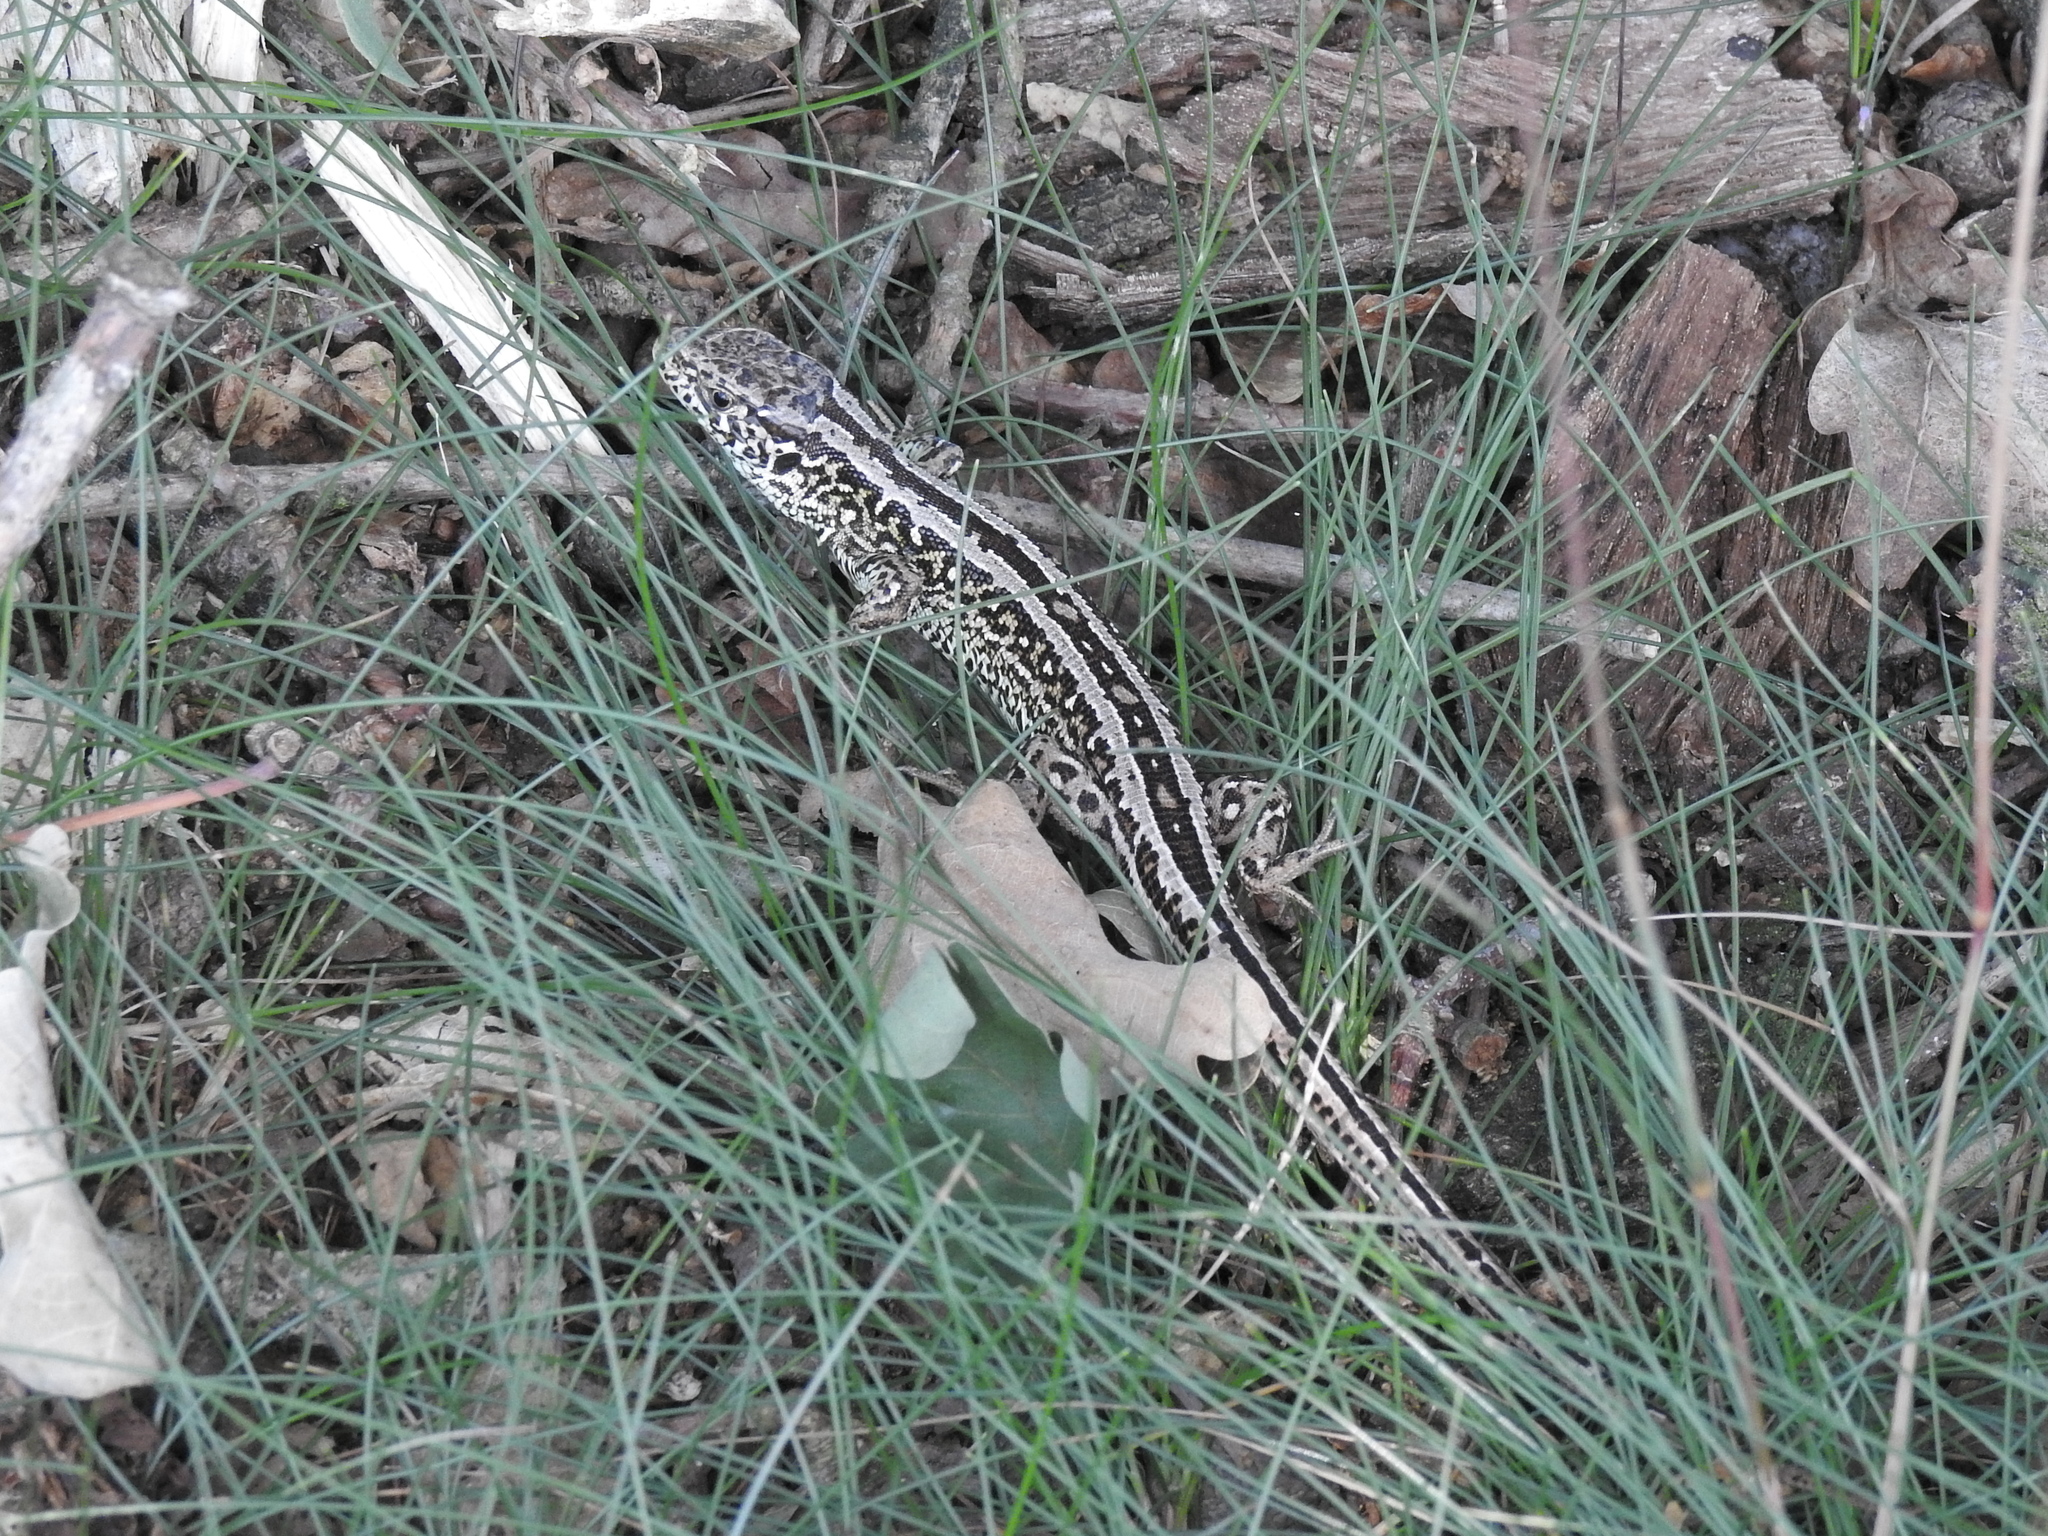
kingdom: Animalia
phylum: Chordata
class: Squamata
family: Lacertidae
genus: Lacerta
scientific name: Lacerta agilis
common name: Sand lizard
